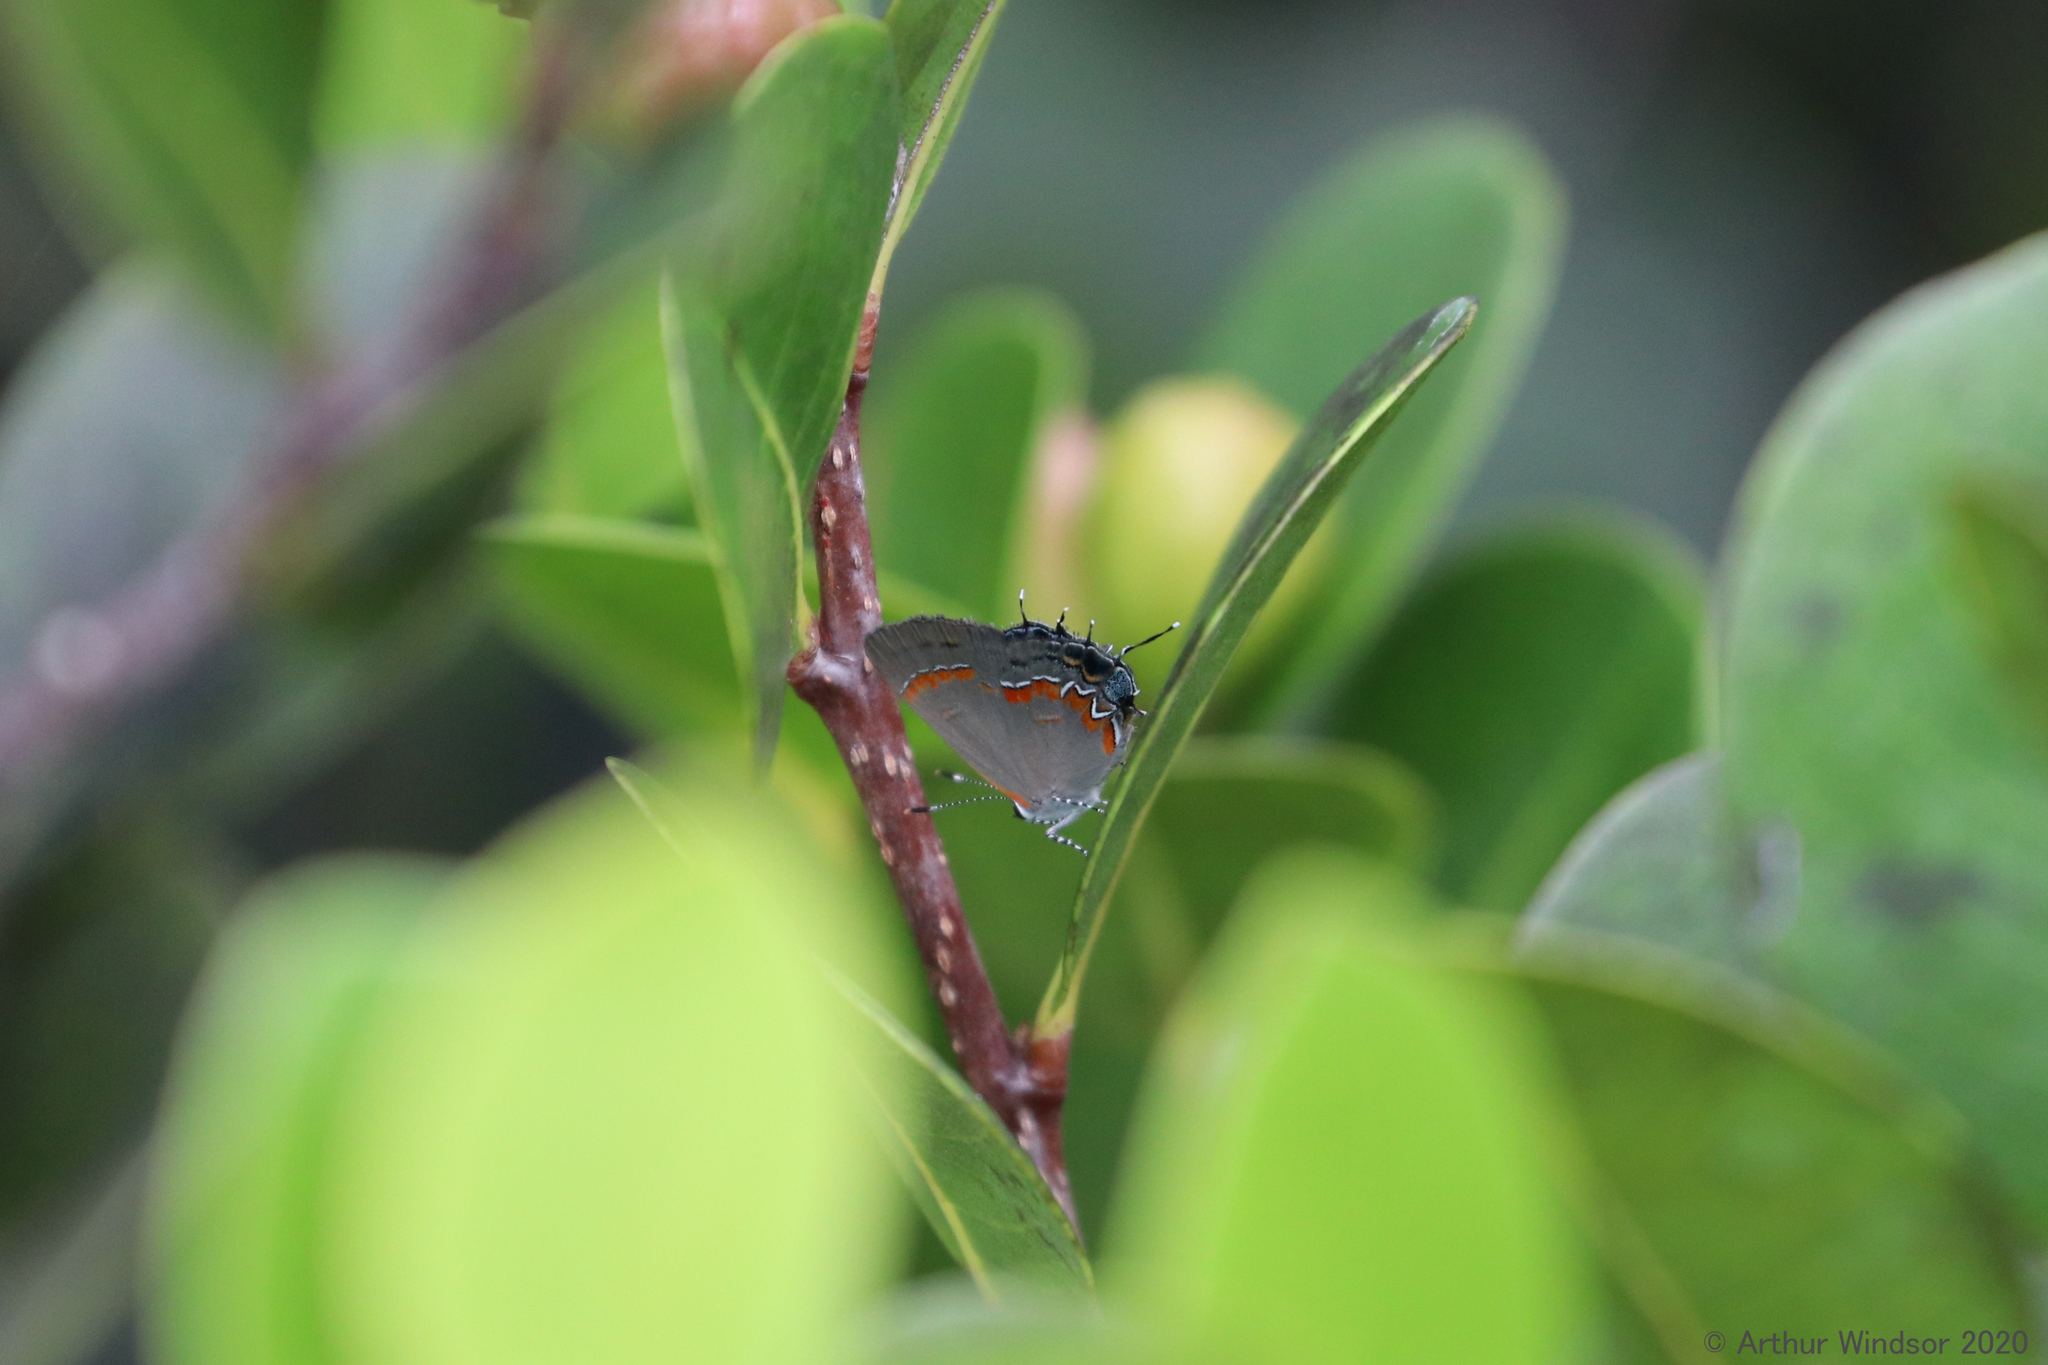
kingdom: Animalia
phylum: Arthropoda
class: Insecta
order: Lepidoptera
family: Lycaenidae
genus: Calycopis
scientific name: Calycopis cecrops
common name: Red-banded hairstreak
